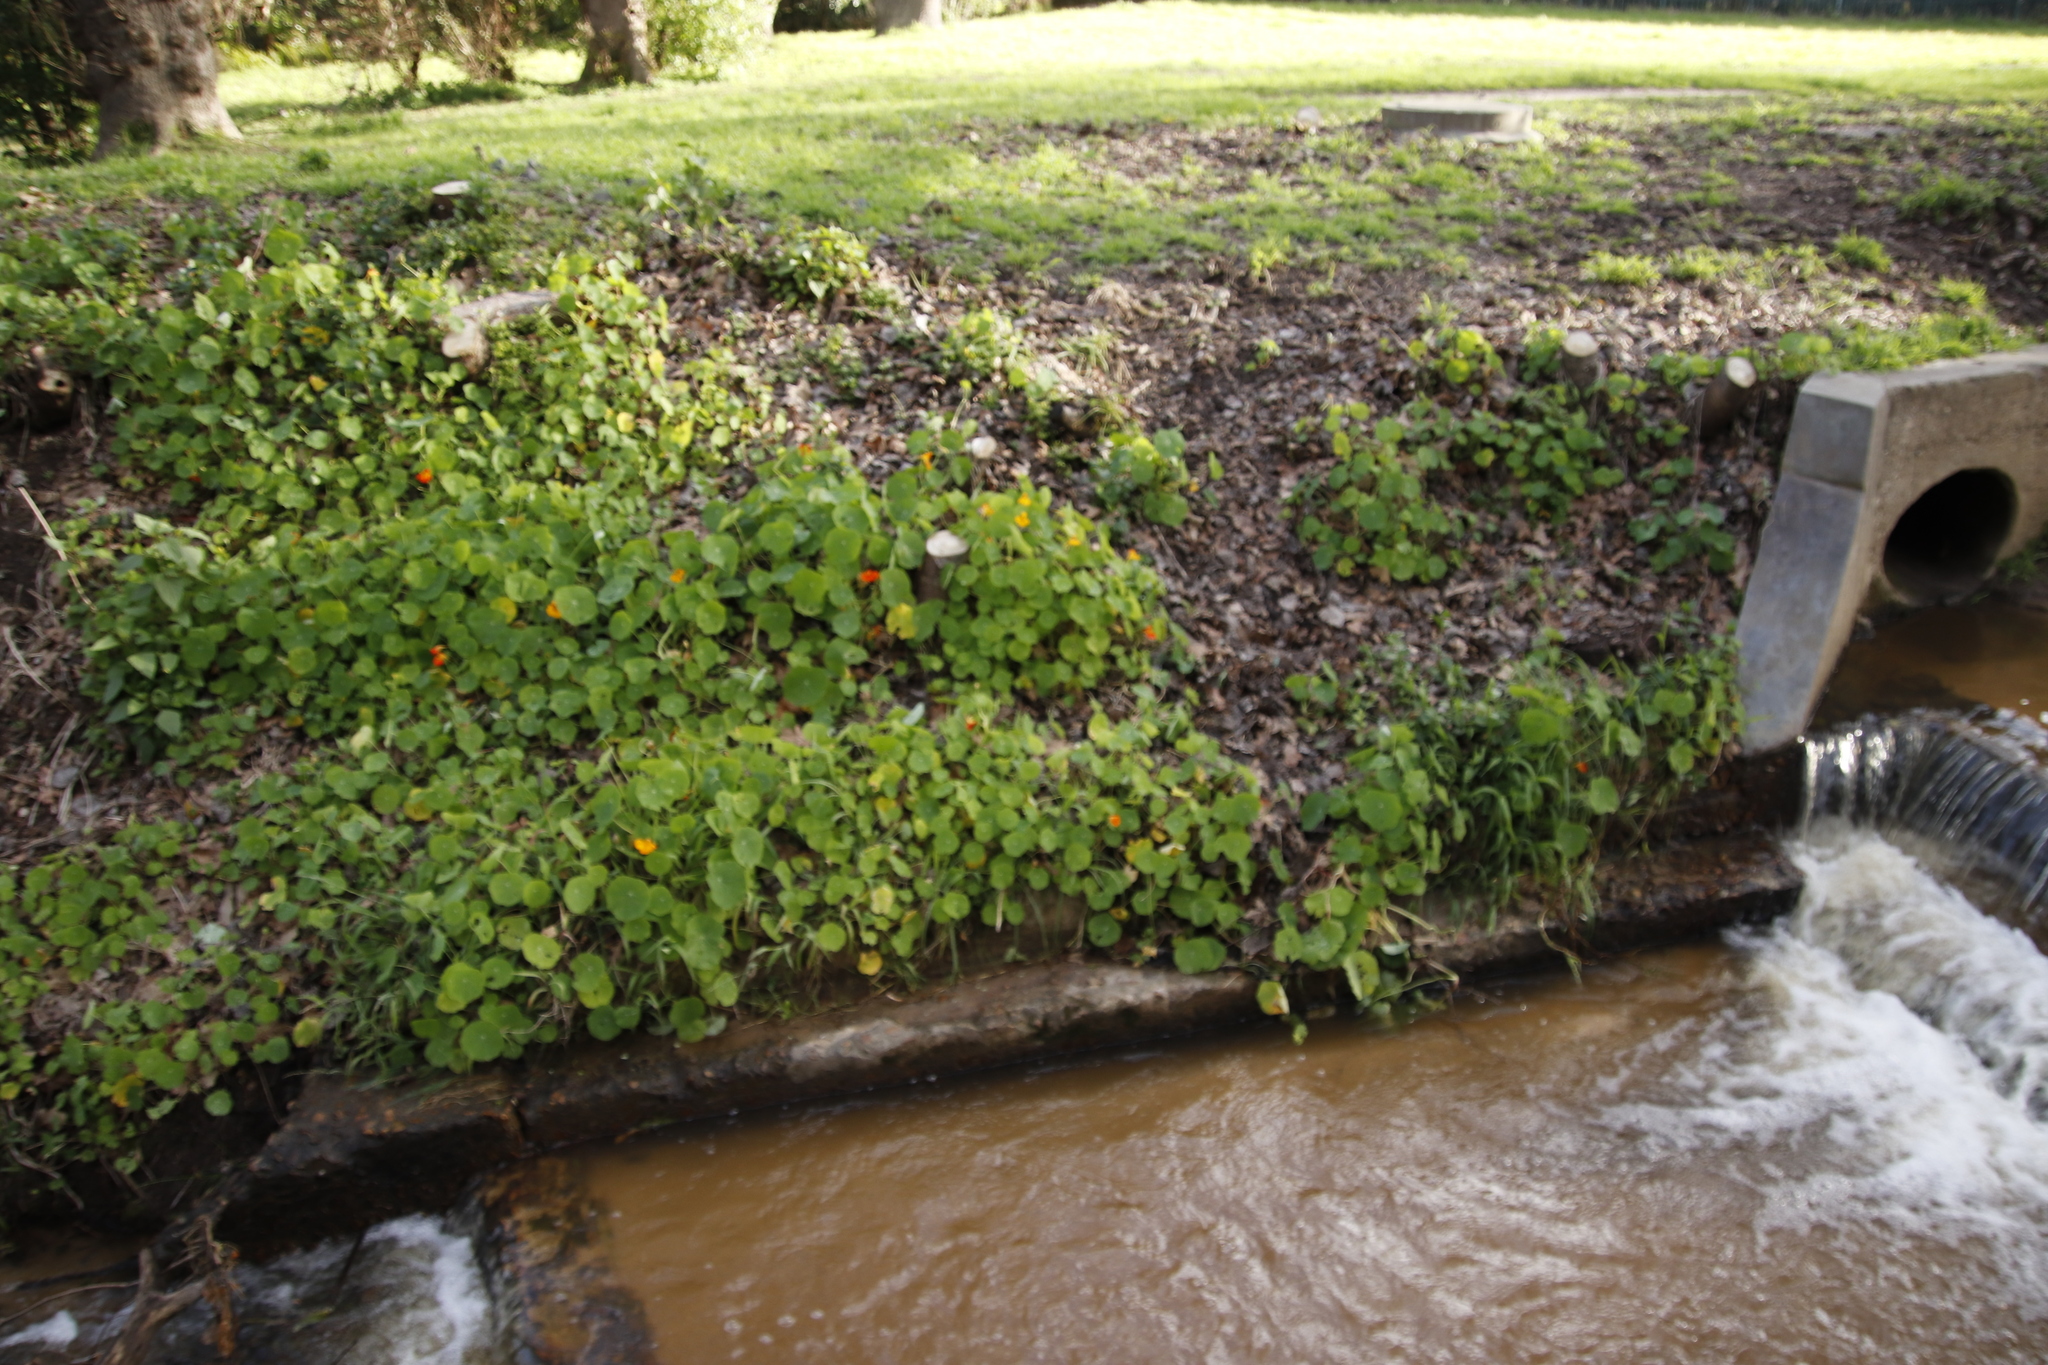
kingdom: Plantae
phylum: Tracheophyta
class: Magnoliopsida
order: Brassicales
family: Tropaeolaceae
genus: Tropaeolum
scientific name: Tropaeolum majus
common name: Nasturtium
